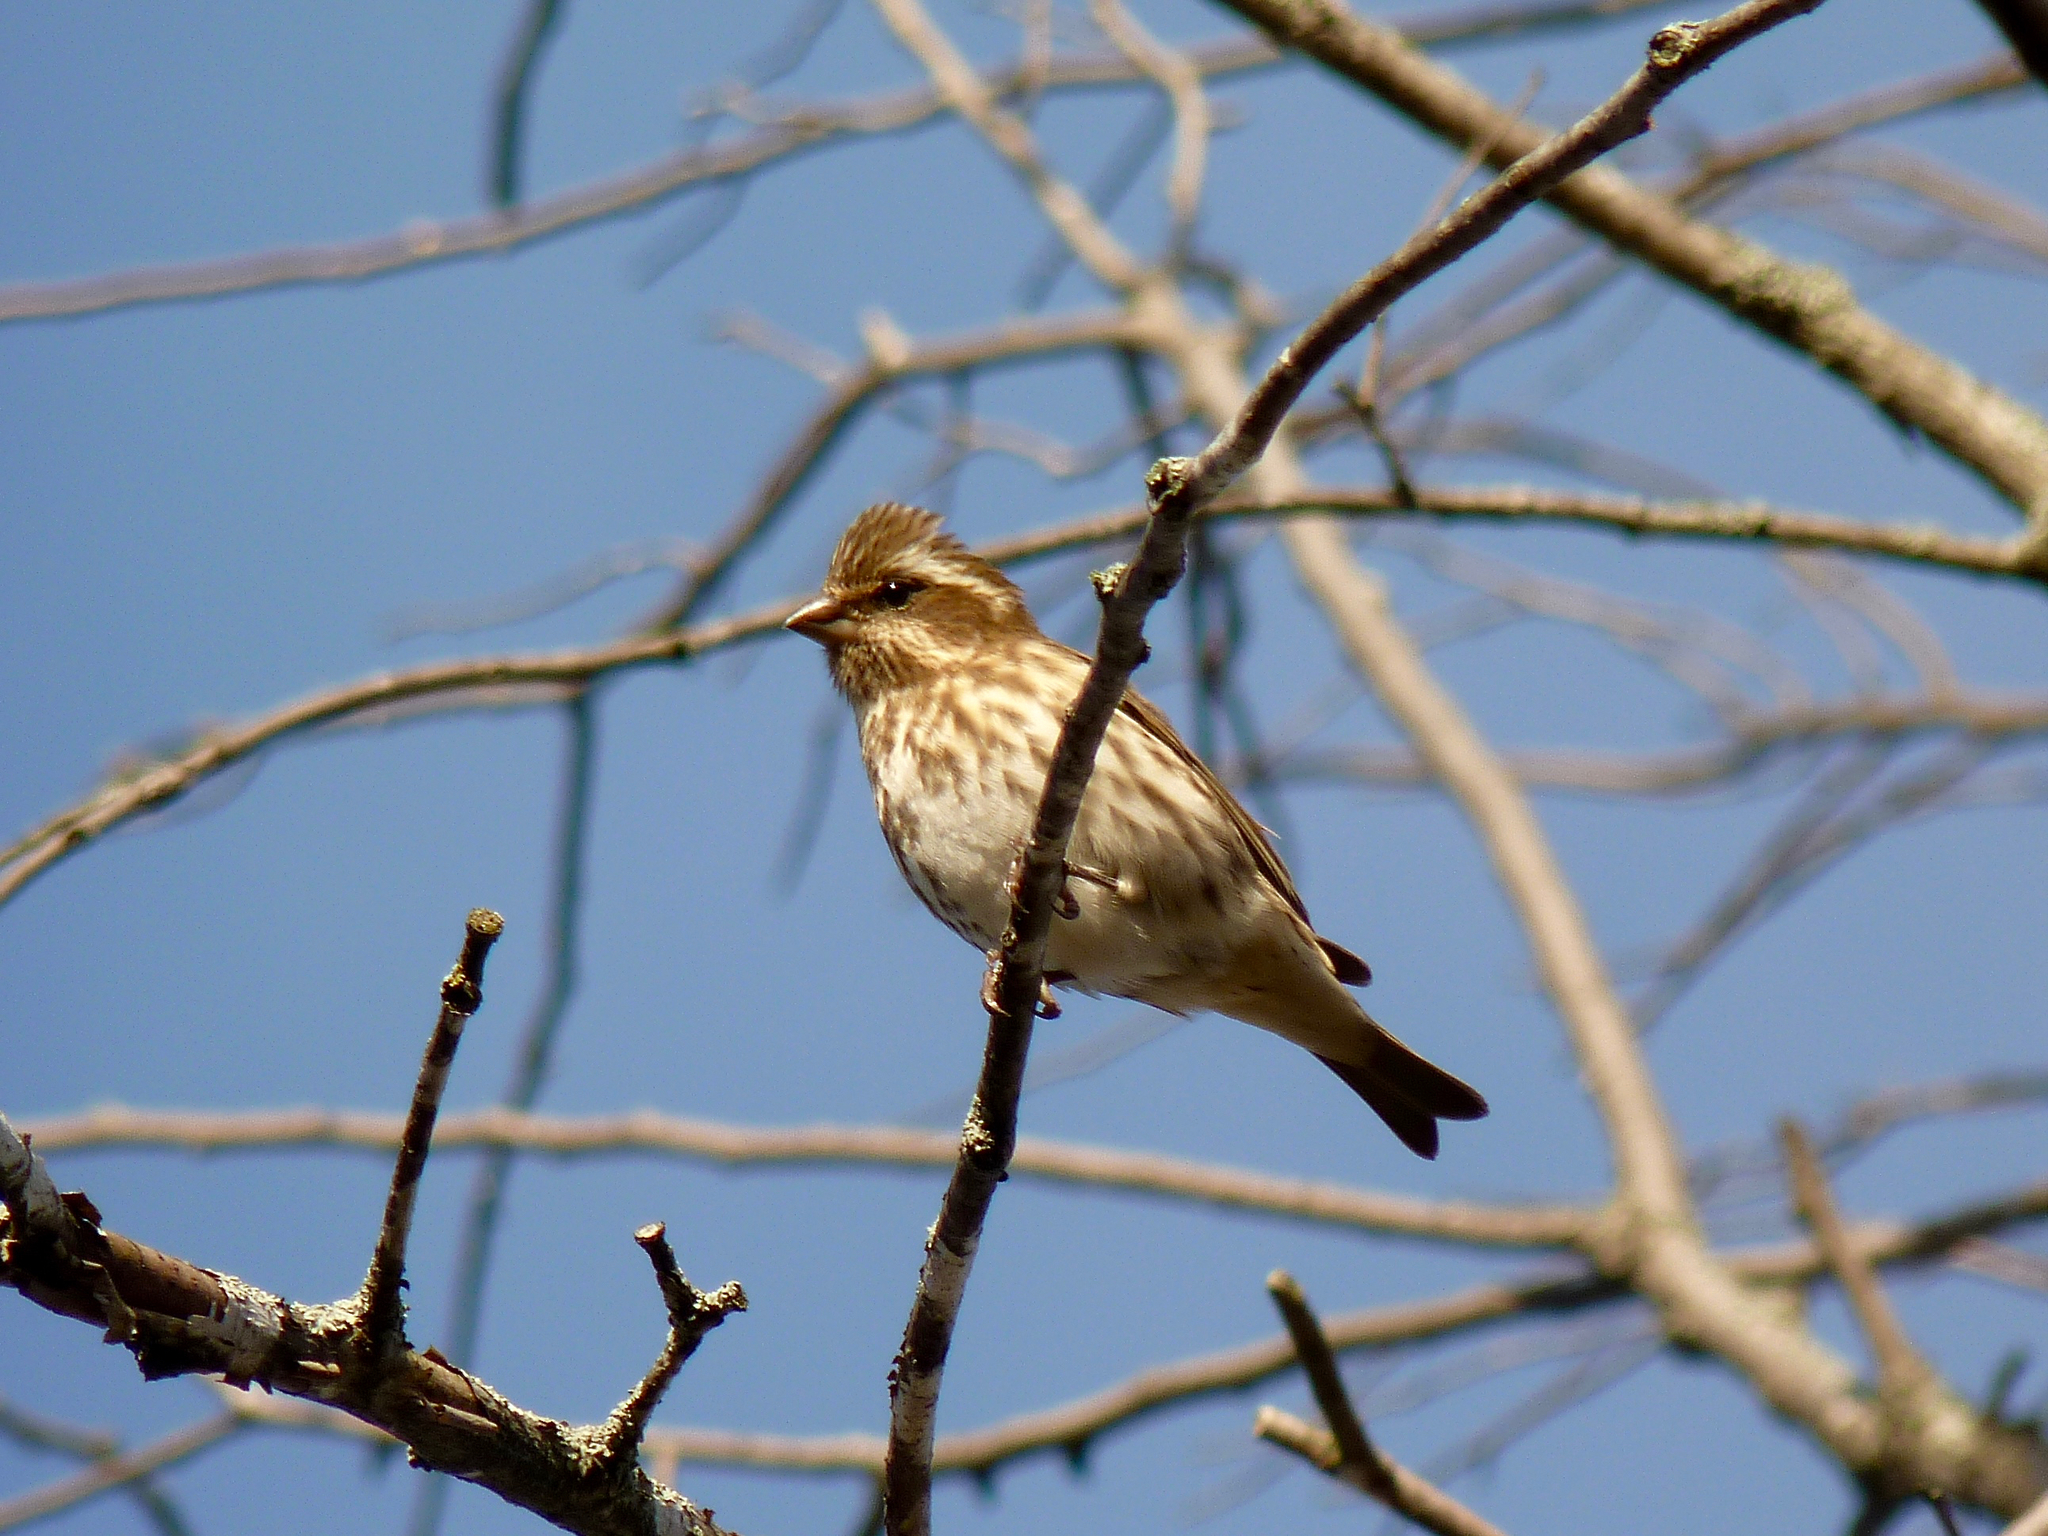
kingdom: Animalia
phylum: Chordata
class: Aves
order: Passeriformes
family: Fringillidae
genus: Haemorhous
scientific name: Haemorhous purpureus
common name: Purple finch
